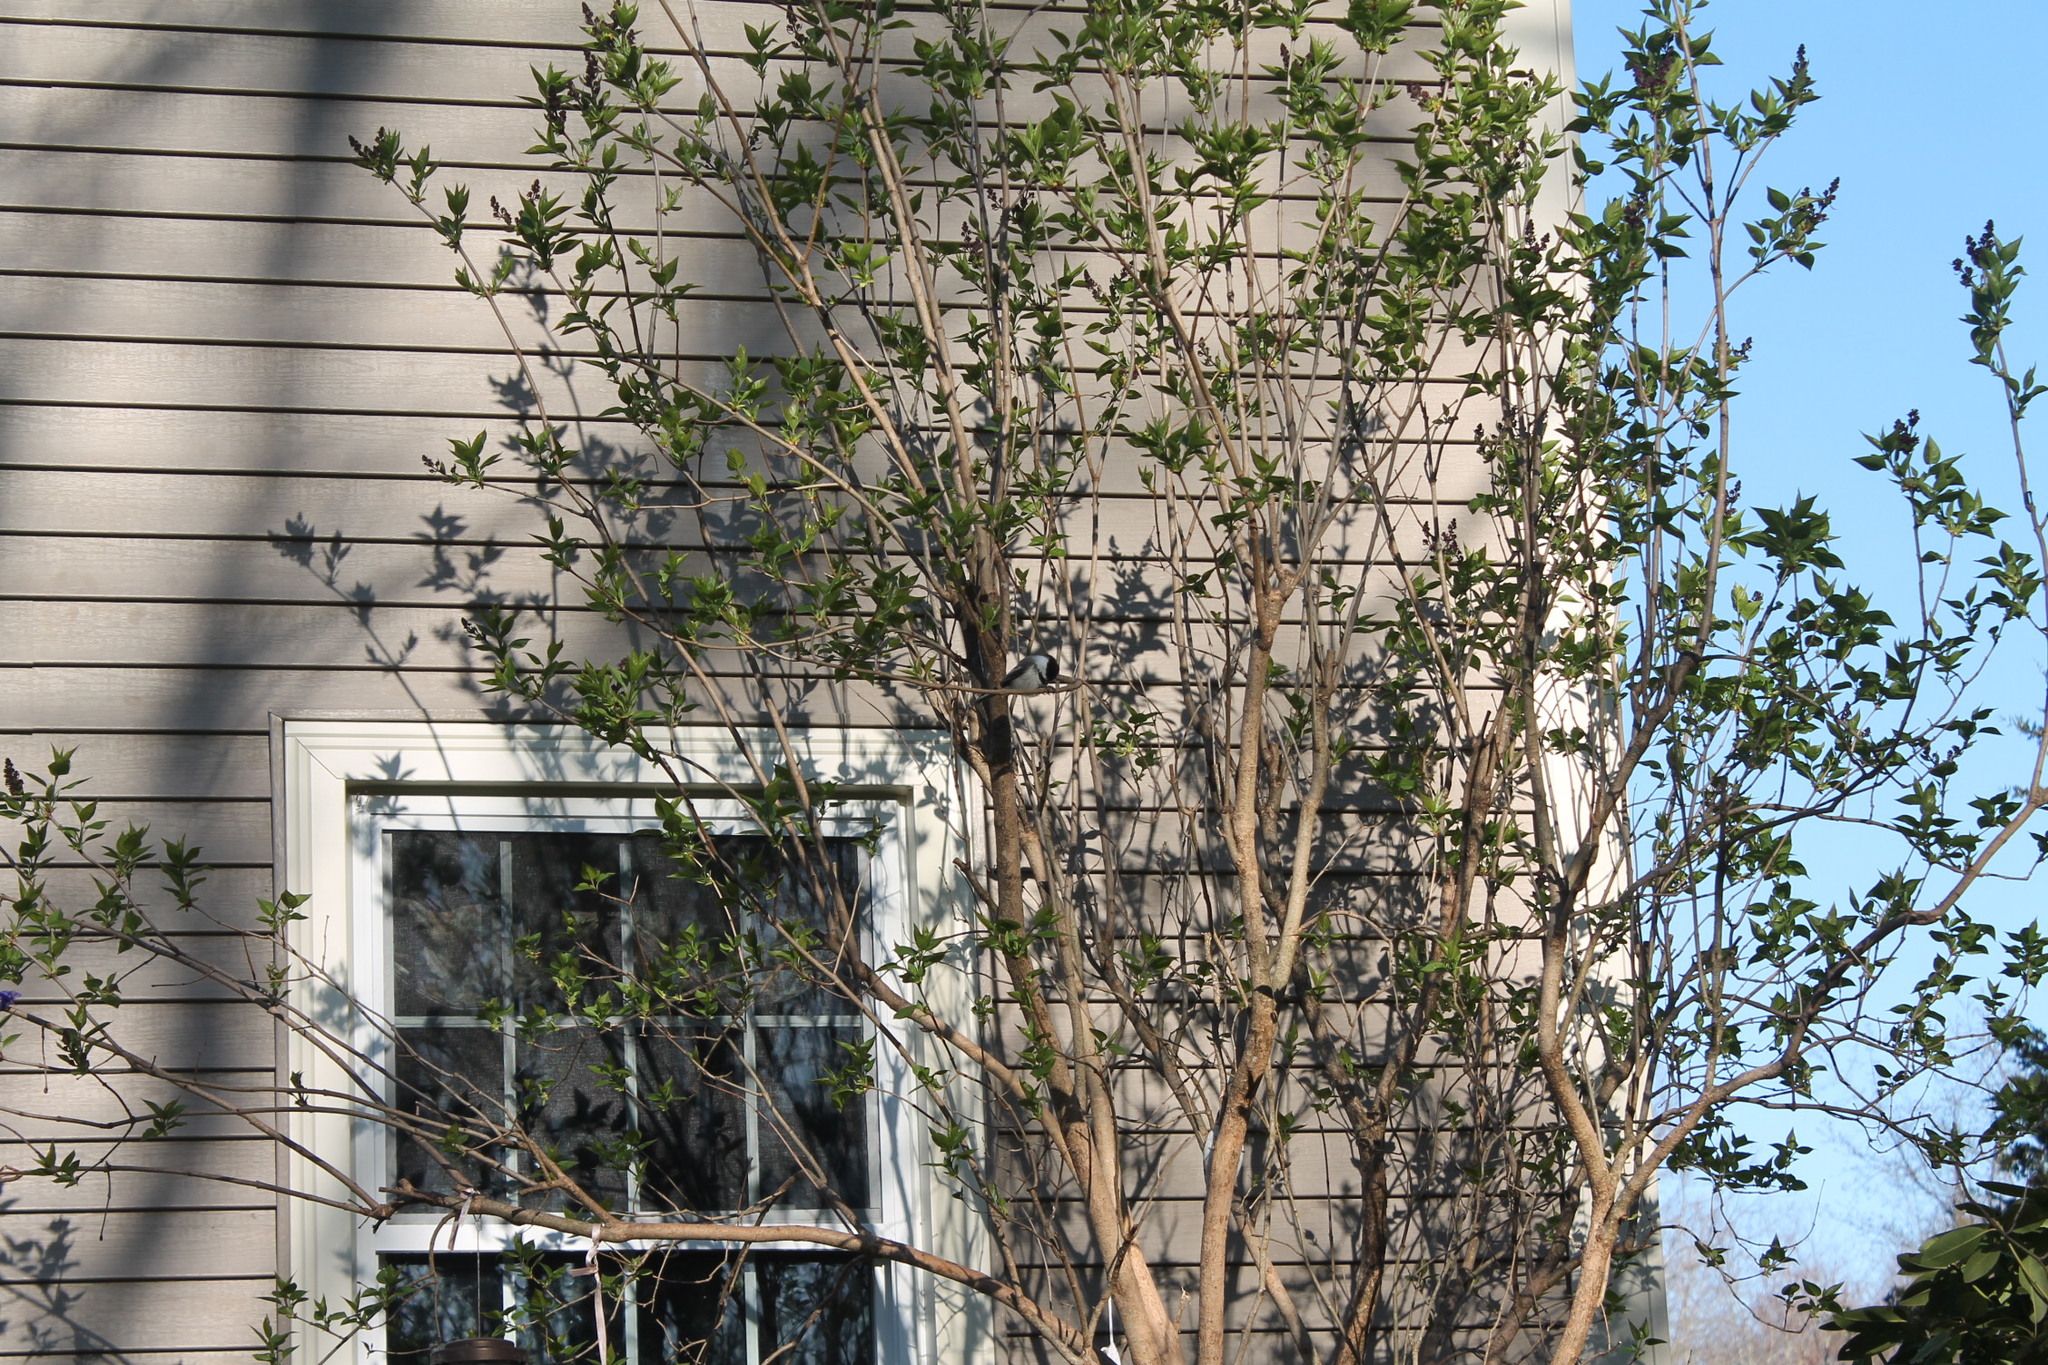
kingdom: Animalia
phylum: Chordata
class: Aves
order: Passeriformes
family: Paridae
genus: Poecile
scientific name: Poecile atricapillus
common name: Black-capped chickadee
